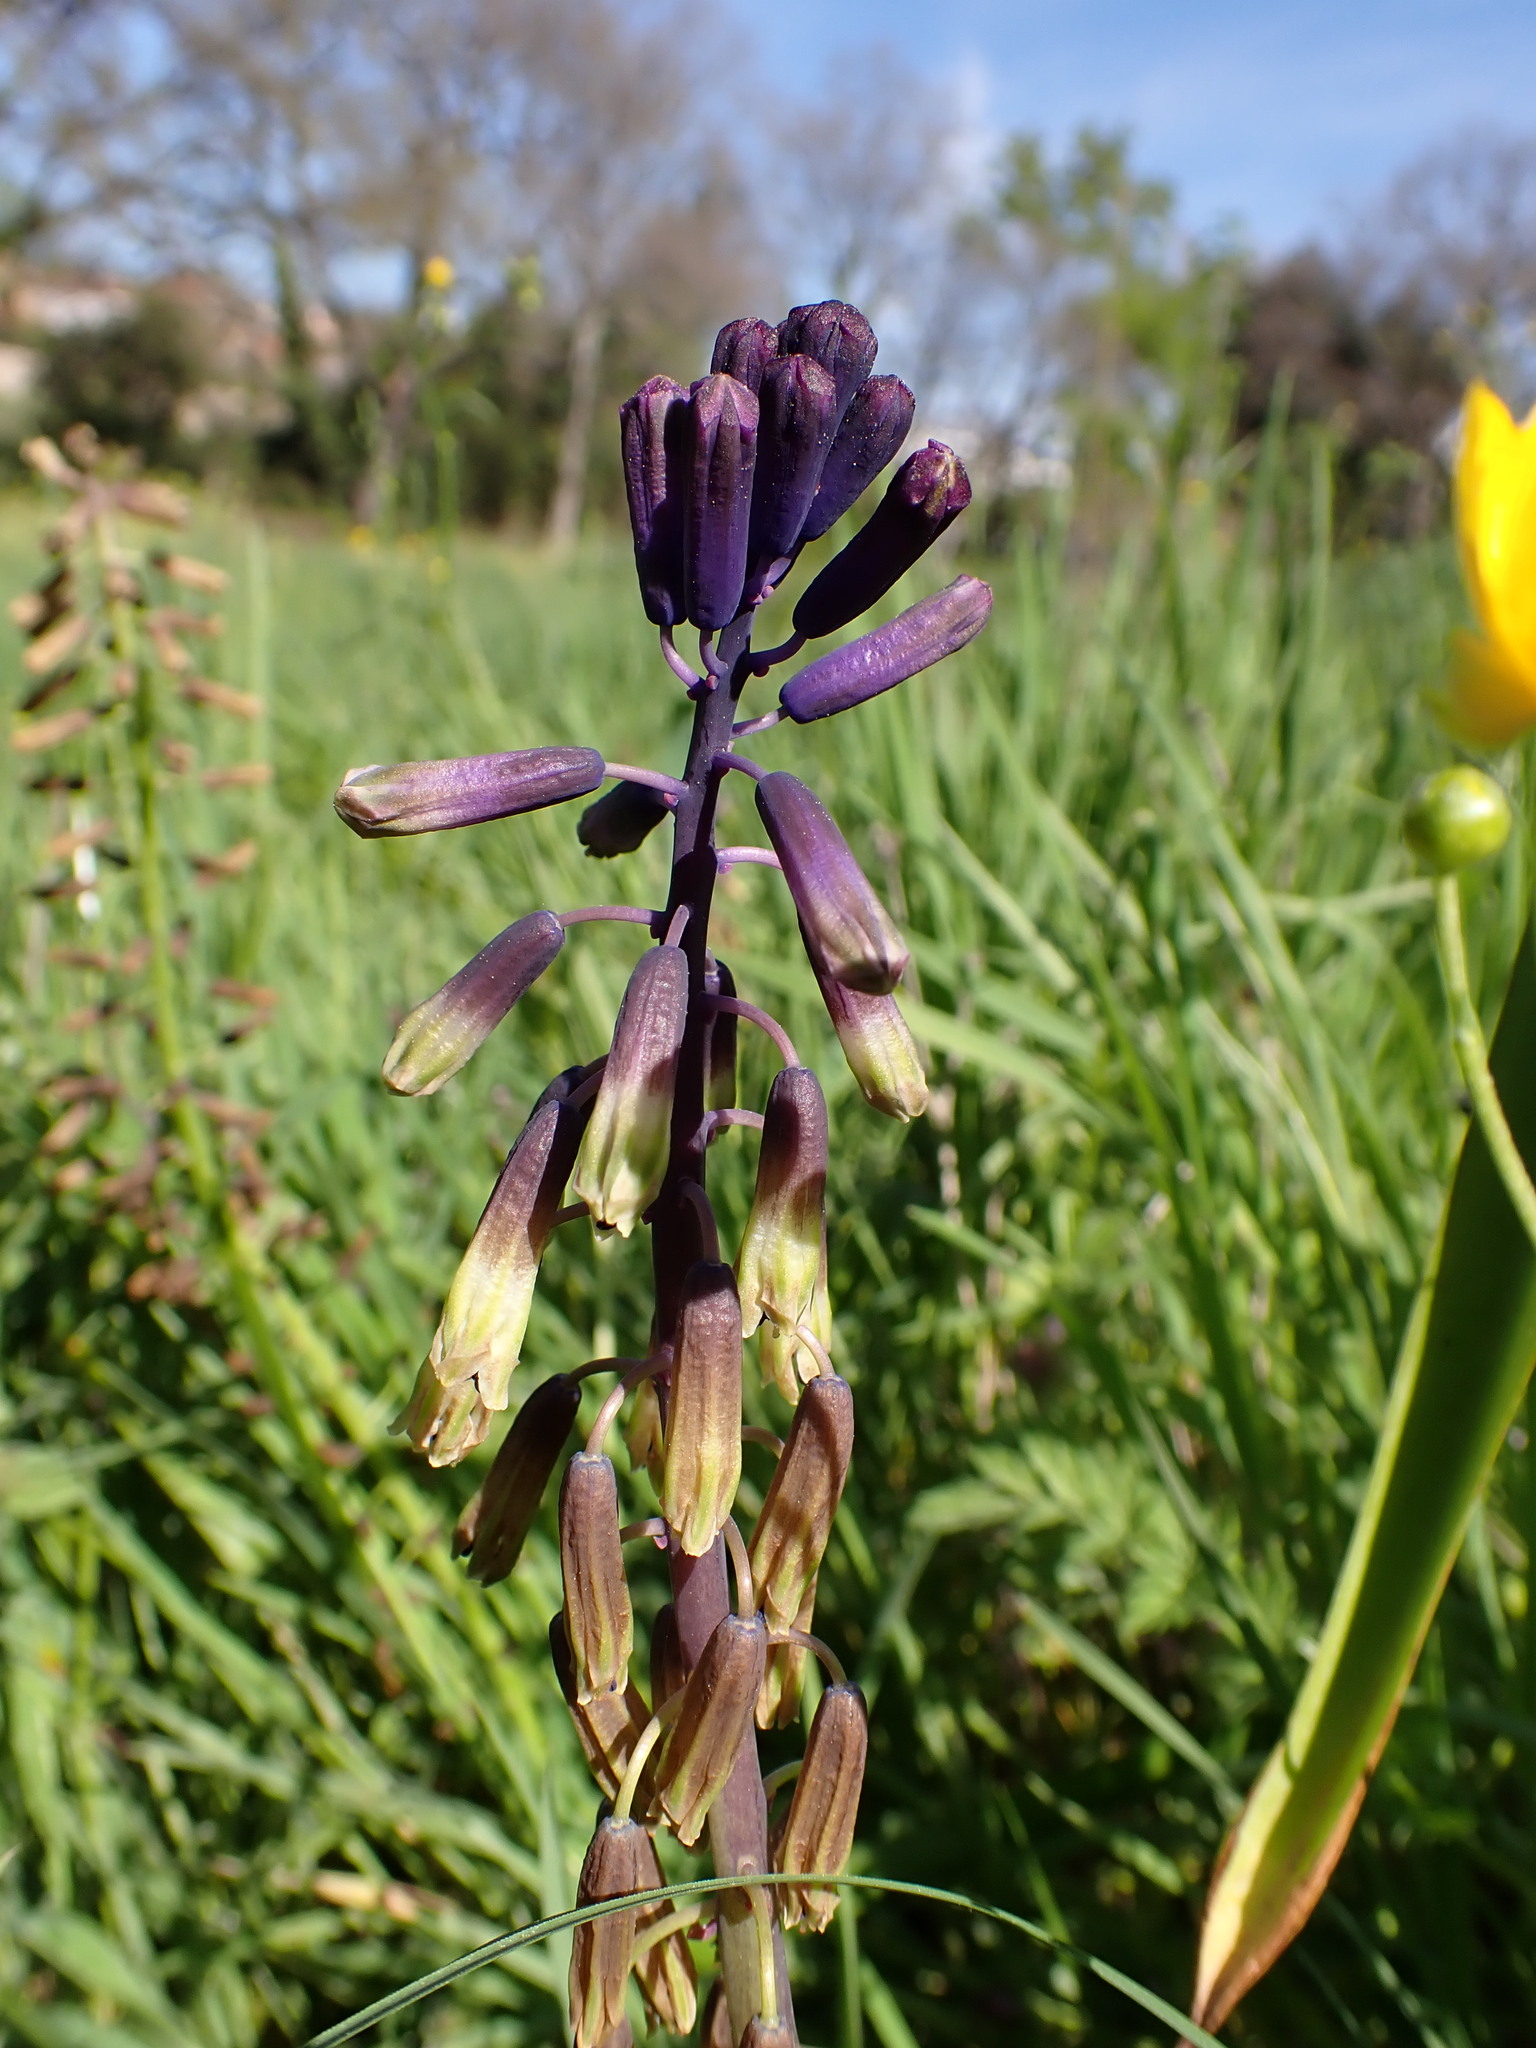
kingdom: Plantae
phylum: Tracheophyta
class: Liliopsida
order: Asparagales
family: Asparagaceae
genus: Bellevalia
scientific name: Bellevalia trifoliata
